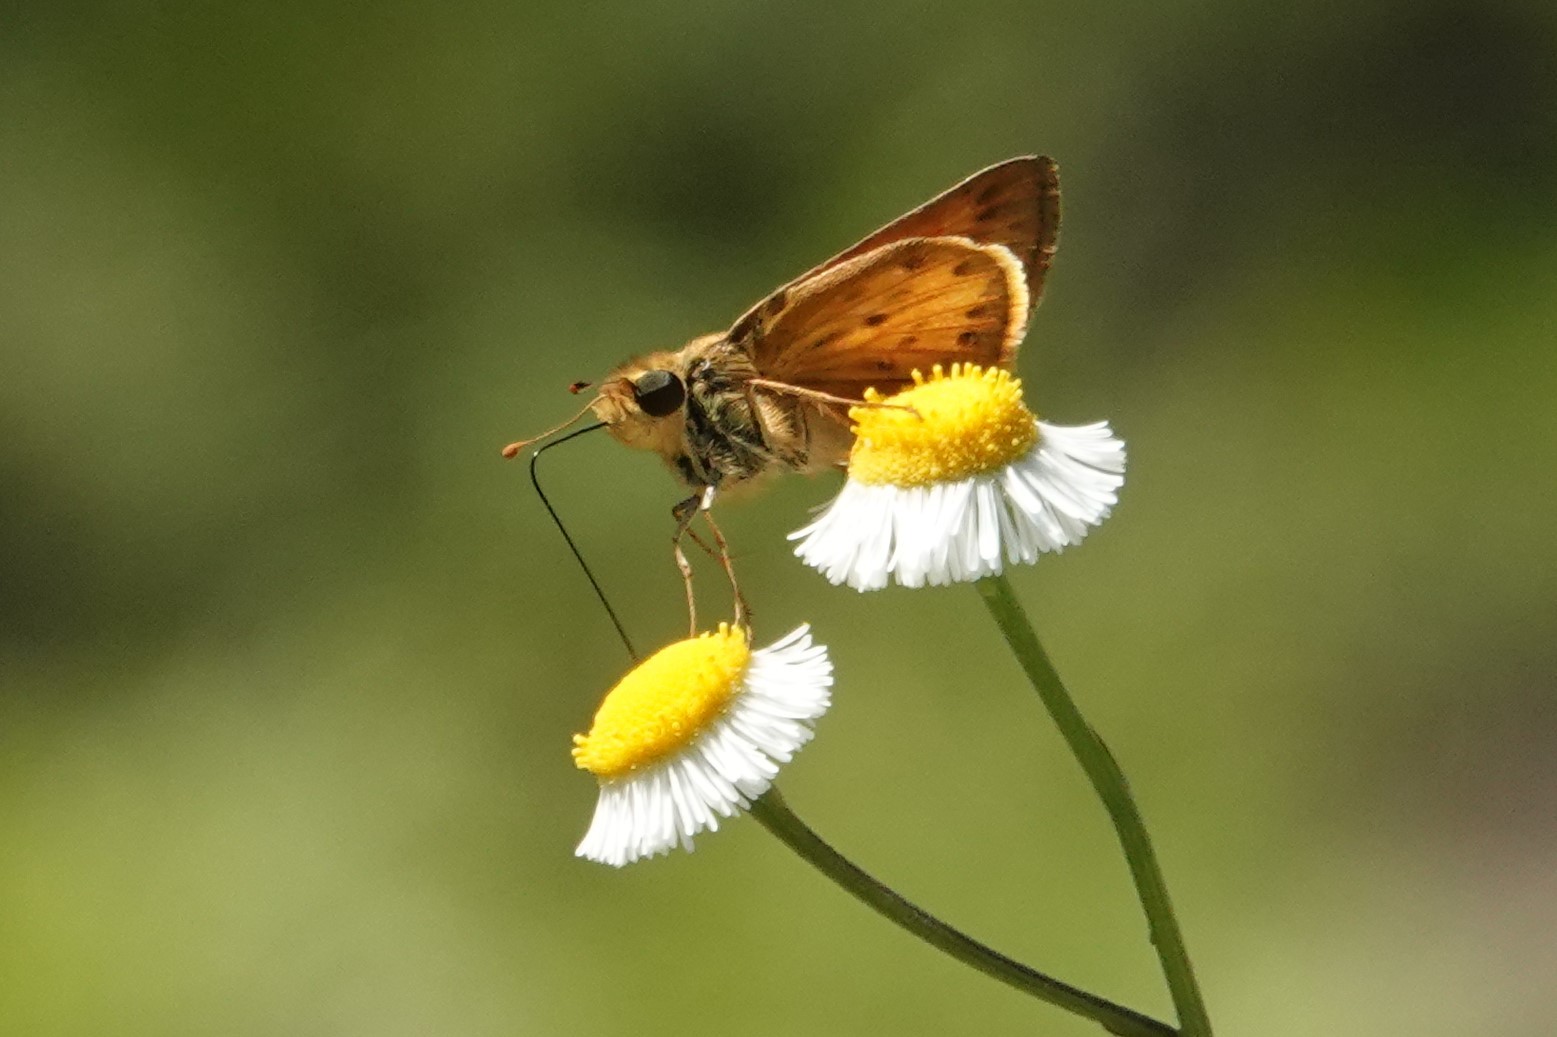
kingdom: Animalia
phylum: Arthropoda
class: Insecta
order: Lepidoptera
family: Hesperiidae
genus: Hylephila
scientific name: Hylephila phyleus
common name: Fiery skipper
